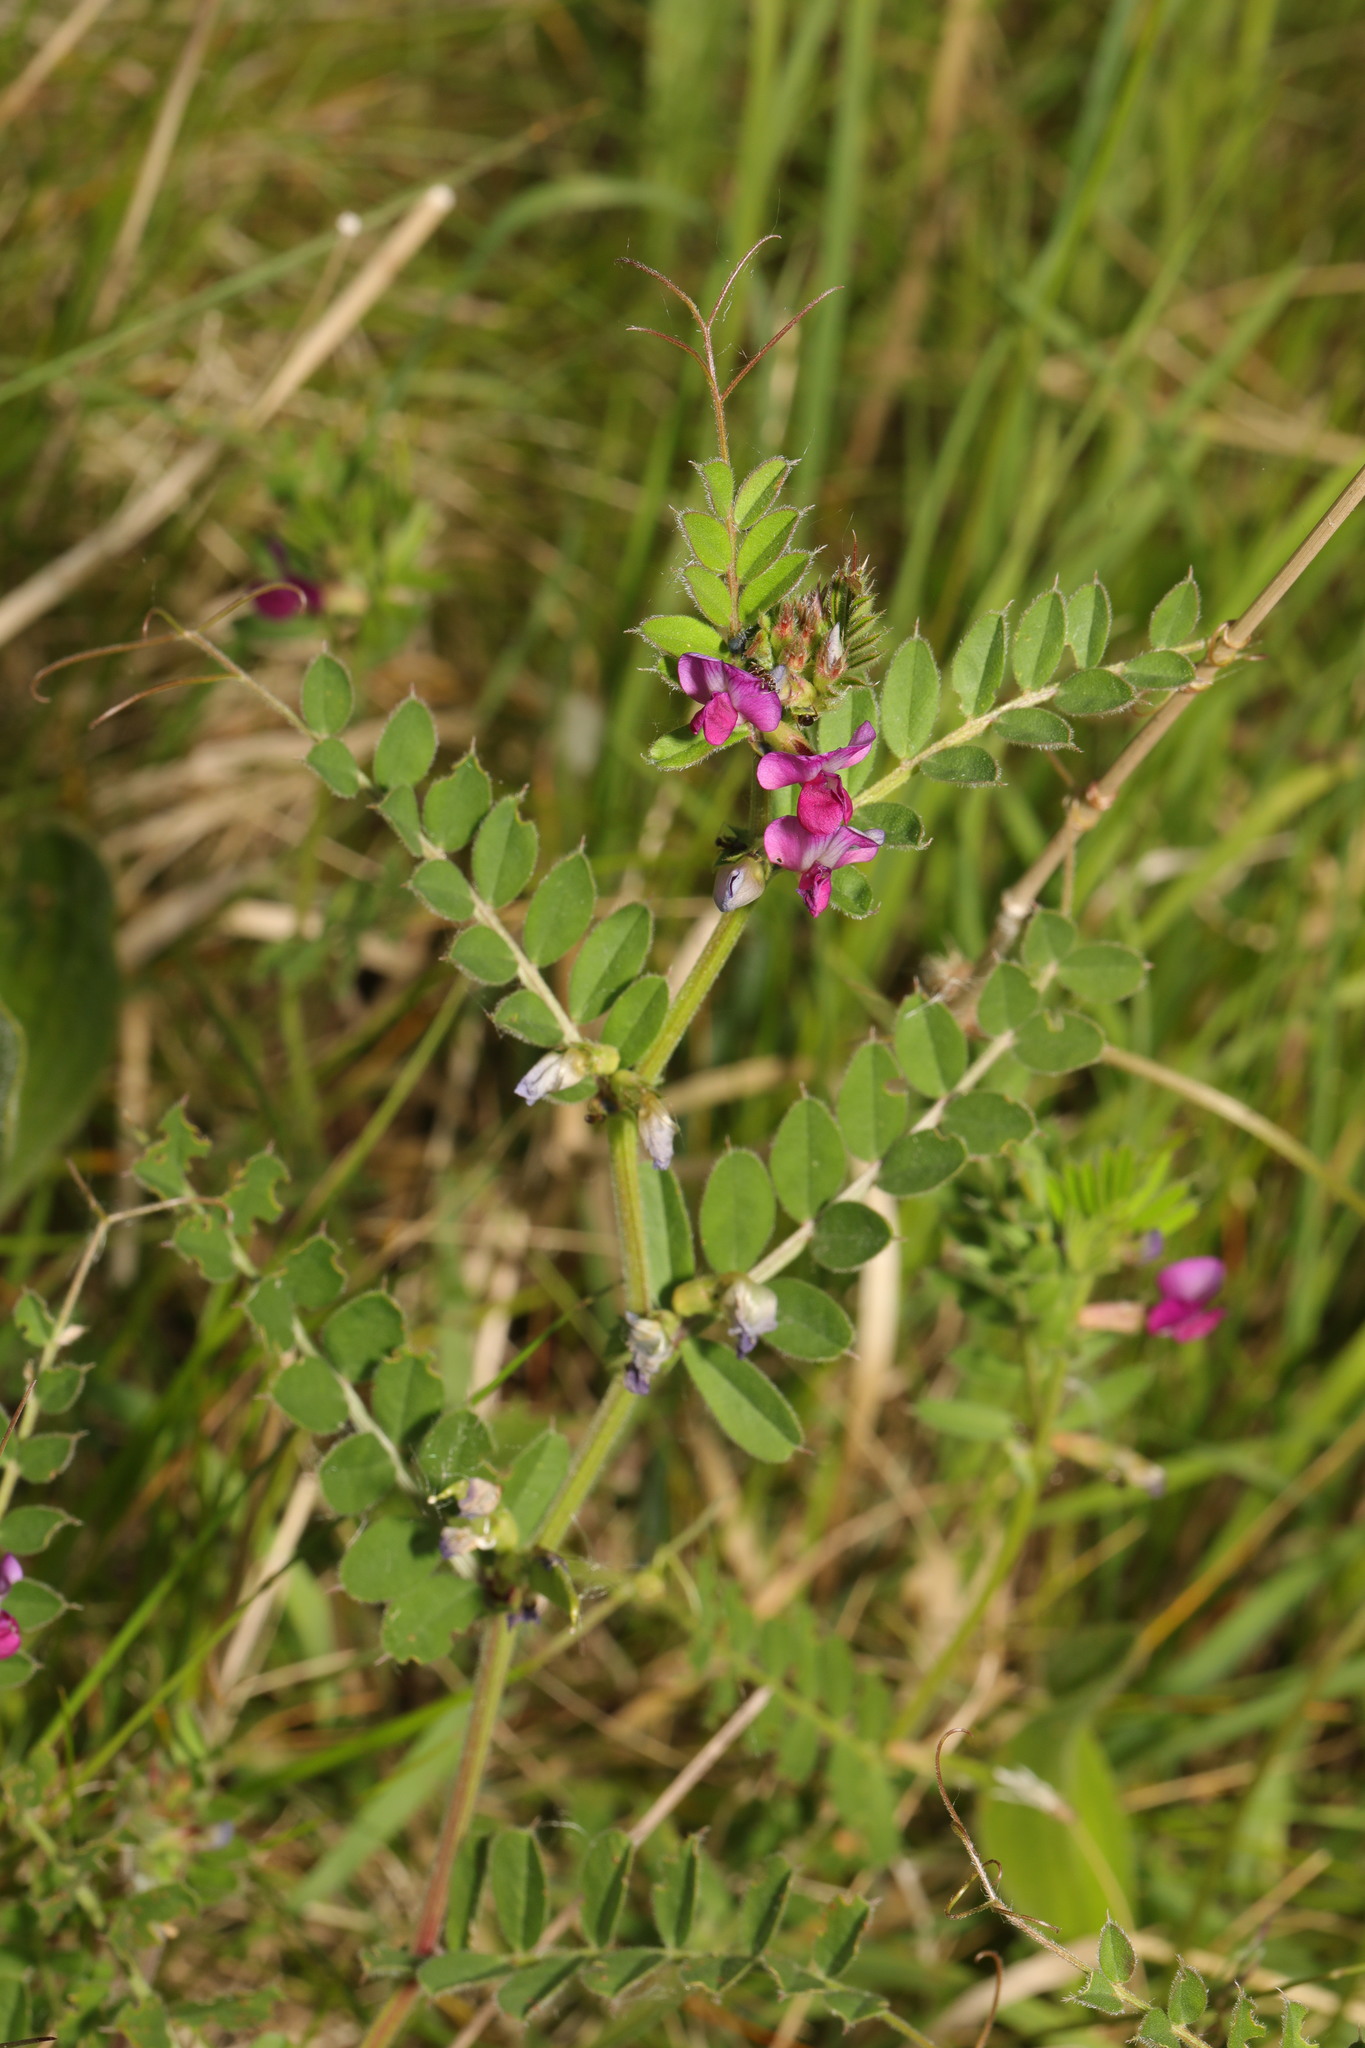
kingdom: Plantae
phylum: Tracheophyta
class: Magnoliopsida
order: Fabales
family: Fabaceae
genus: Vicia
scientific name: Vicia sativa
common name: Garden vetch
